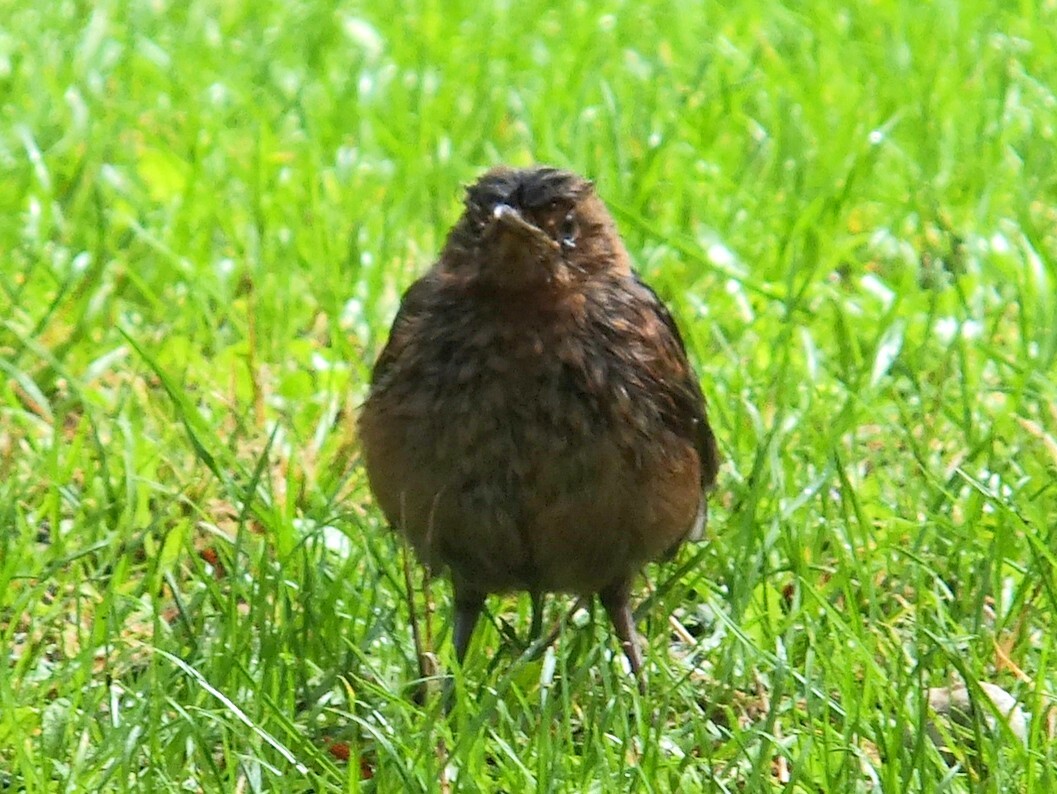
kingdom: Animalia
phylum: Chordata
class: Aves
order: Passeriformes
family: Turdidae
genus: Turdus
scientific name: Turdus merula
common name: Common blackbird
